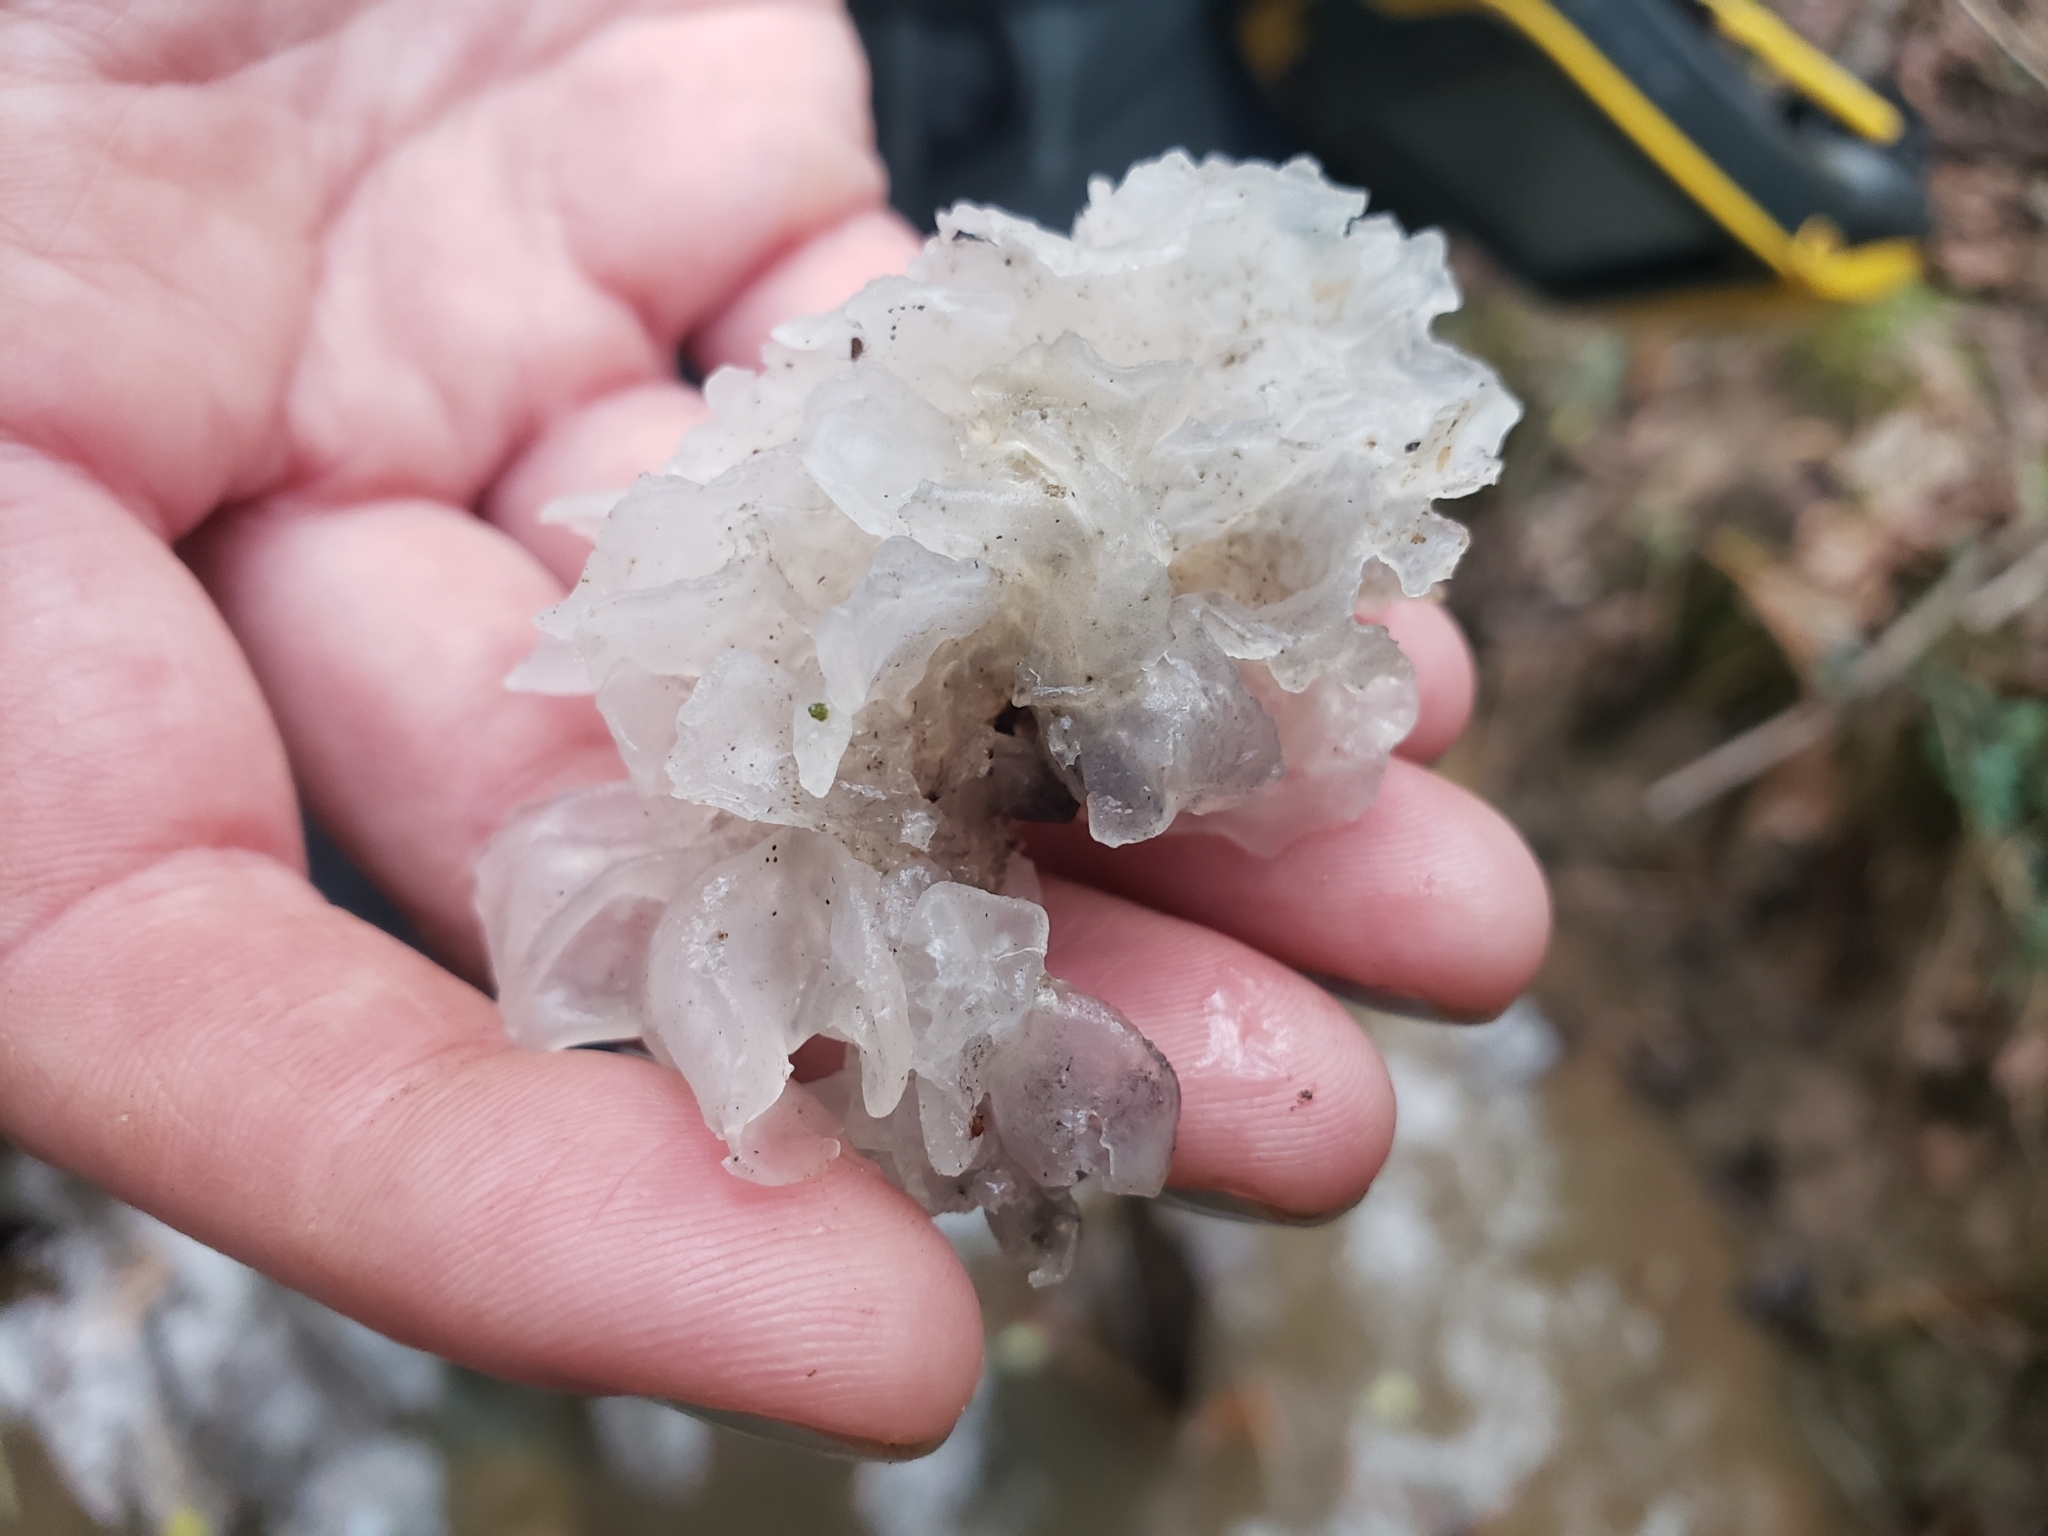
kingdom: Fungi
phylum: Basidiomycota
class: Tremellomycetes
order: Tremellales
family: Tremellaceae
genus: Tremella
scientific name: Tremella fuciformis
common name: Snow fungus
